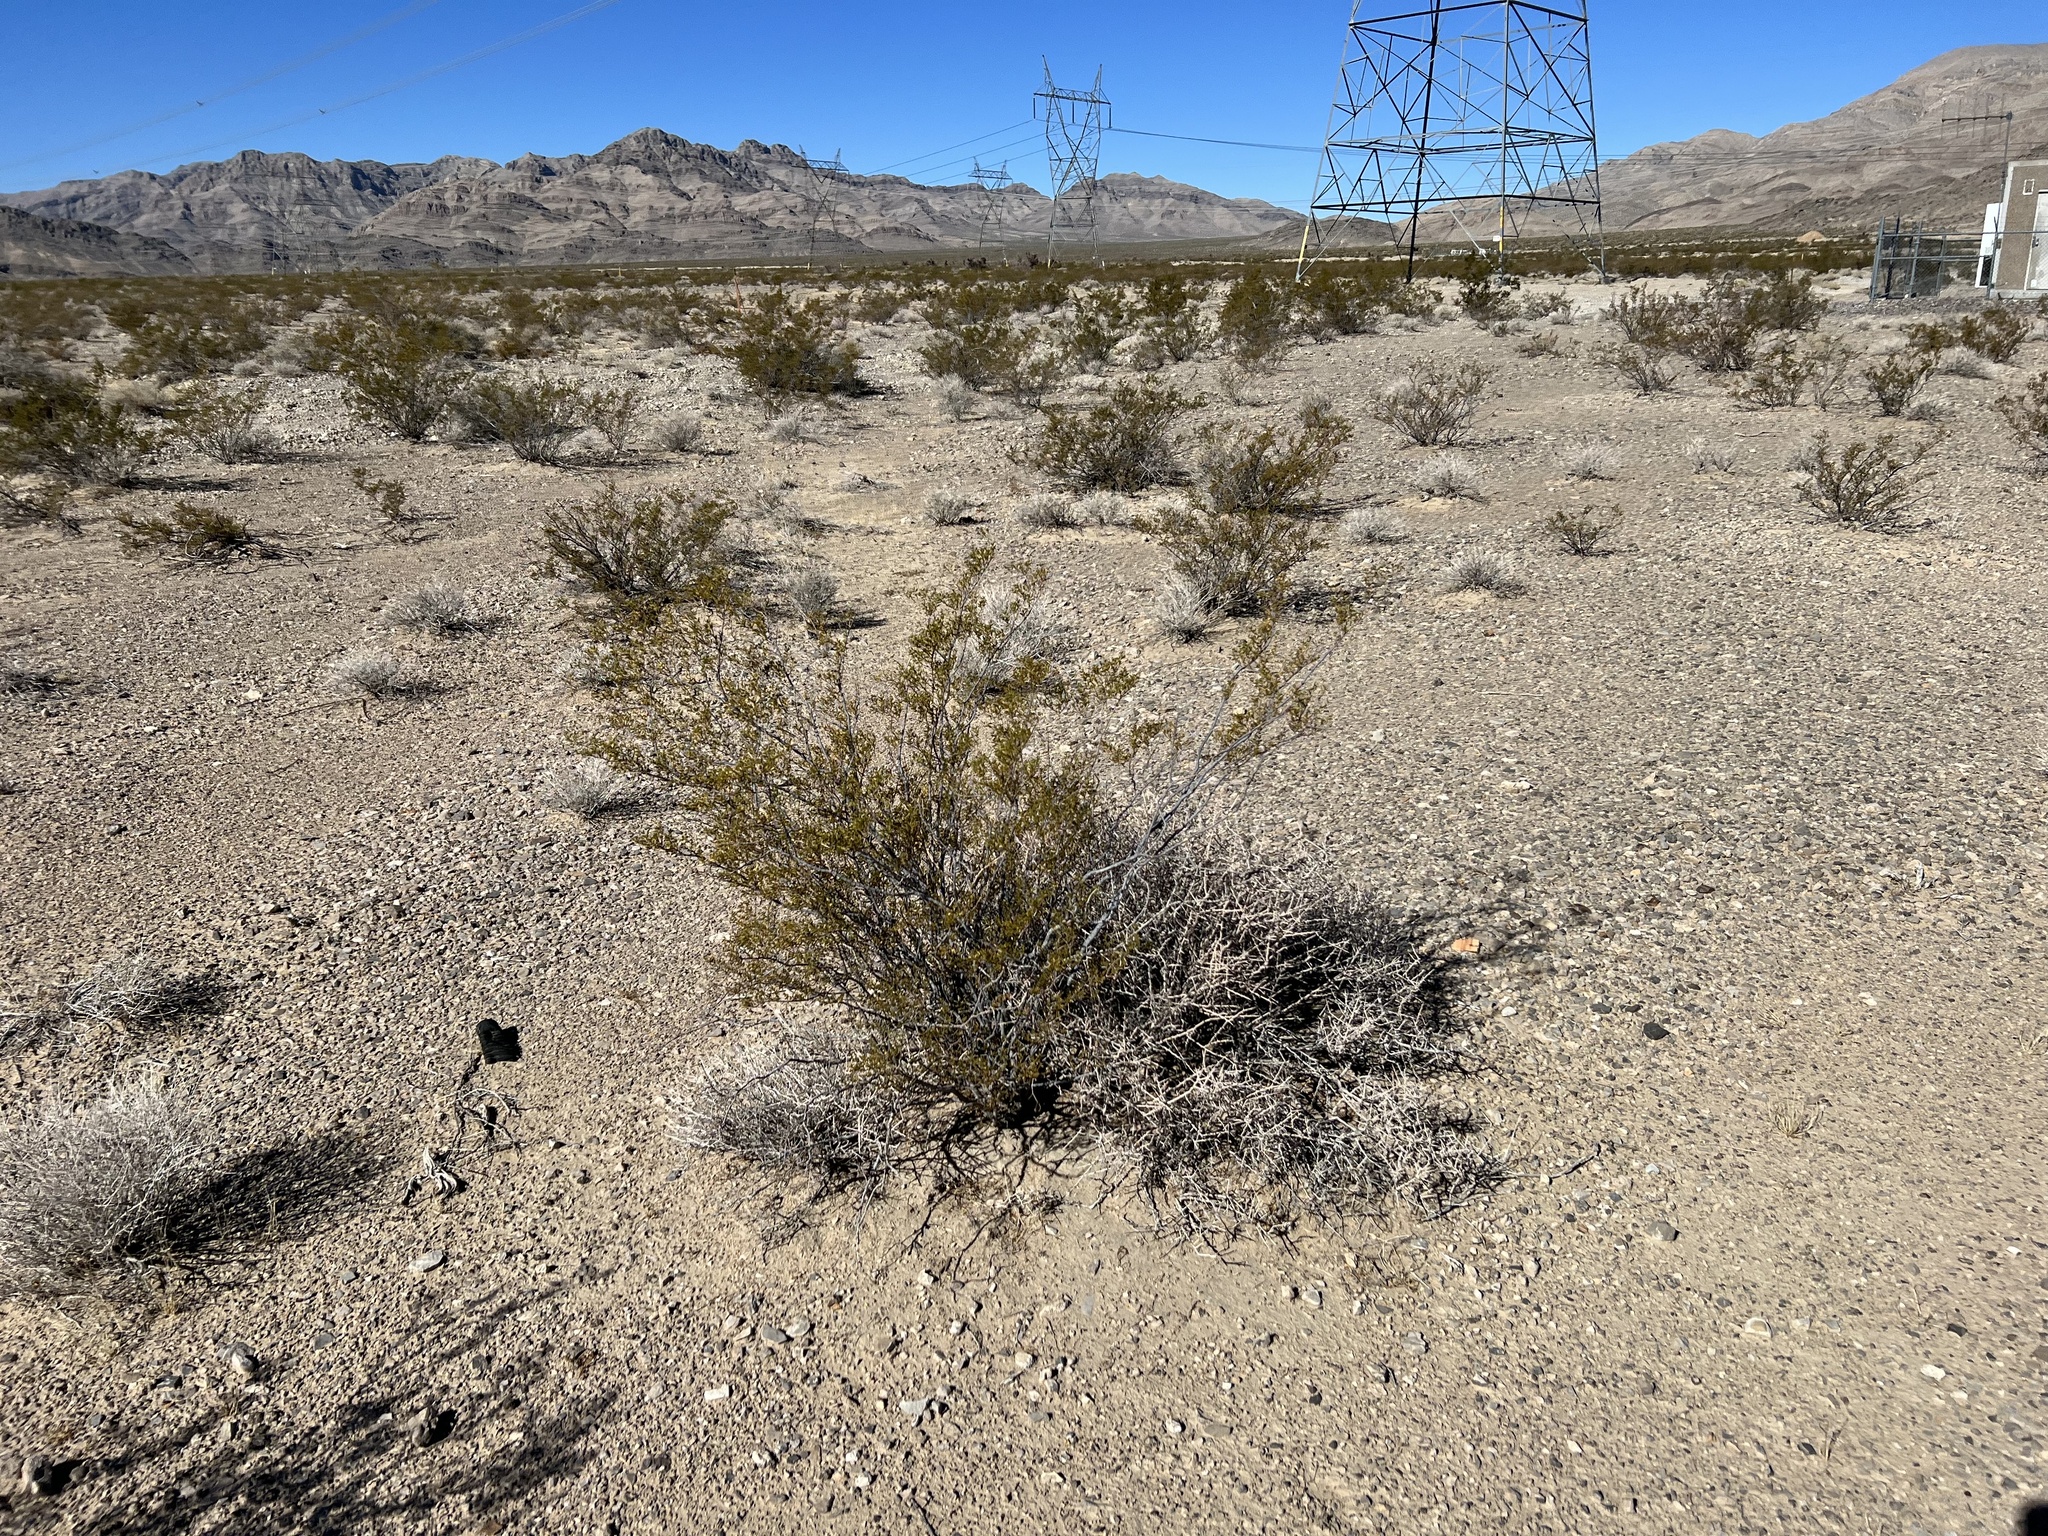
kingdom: Plantae
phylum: Tracheophyta
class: Magnoliopsida
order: Zygophyllales
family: Zygophyllaceae
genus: Larrea
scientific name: Larrea tridentata
